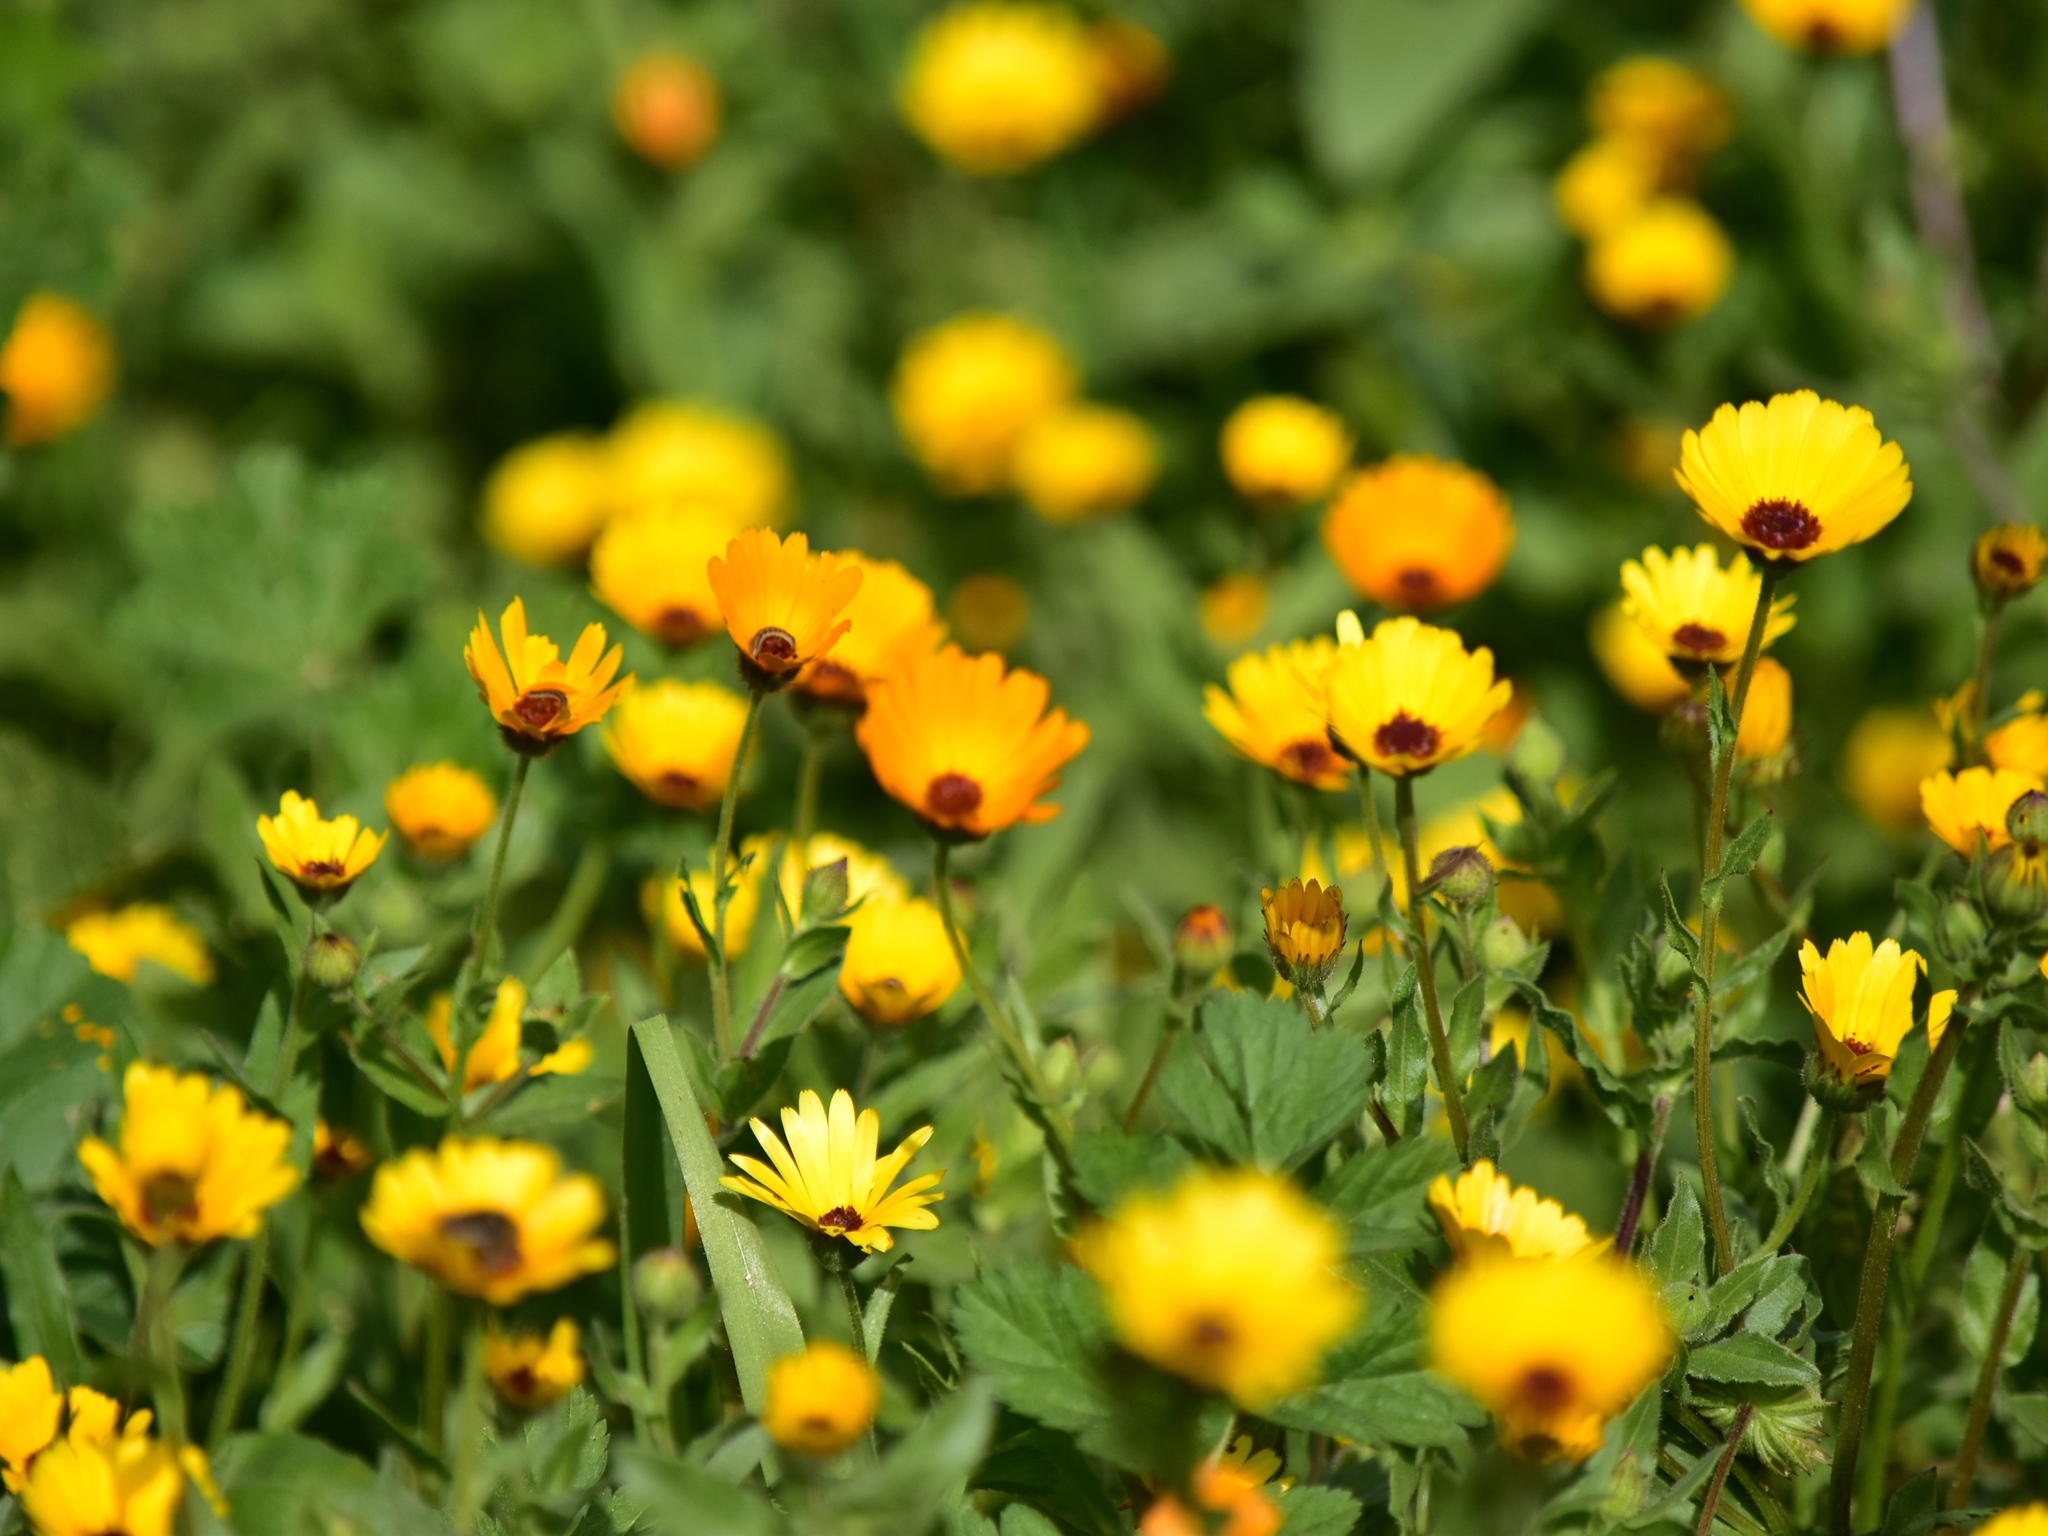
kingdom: Plantae
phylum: Tracheophyta
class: Magnoliopsida
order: Asterales
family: Asteraceae
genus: Calendula
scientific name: Calendula stellata
